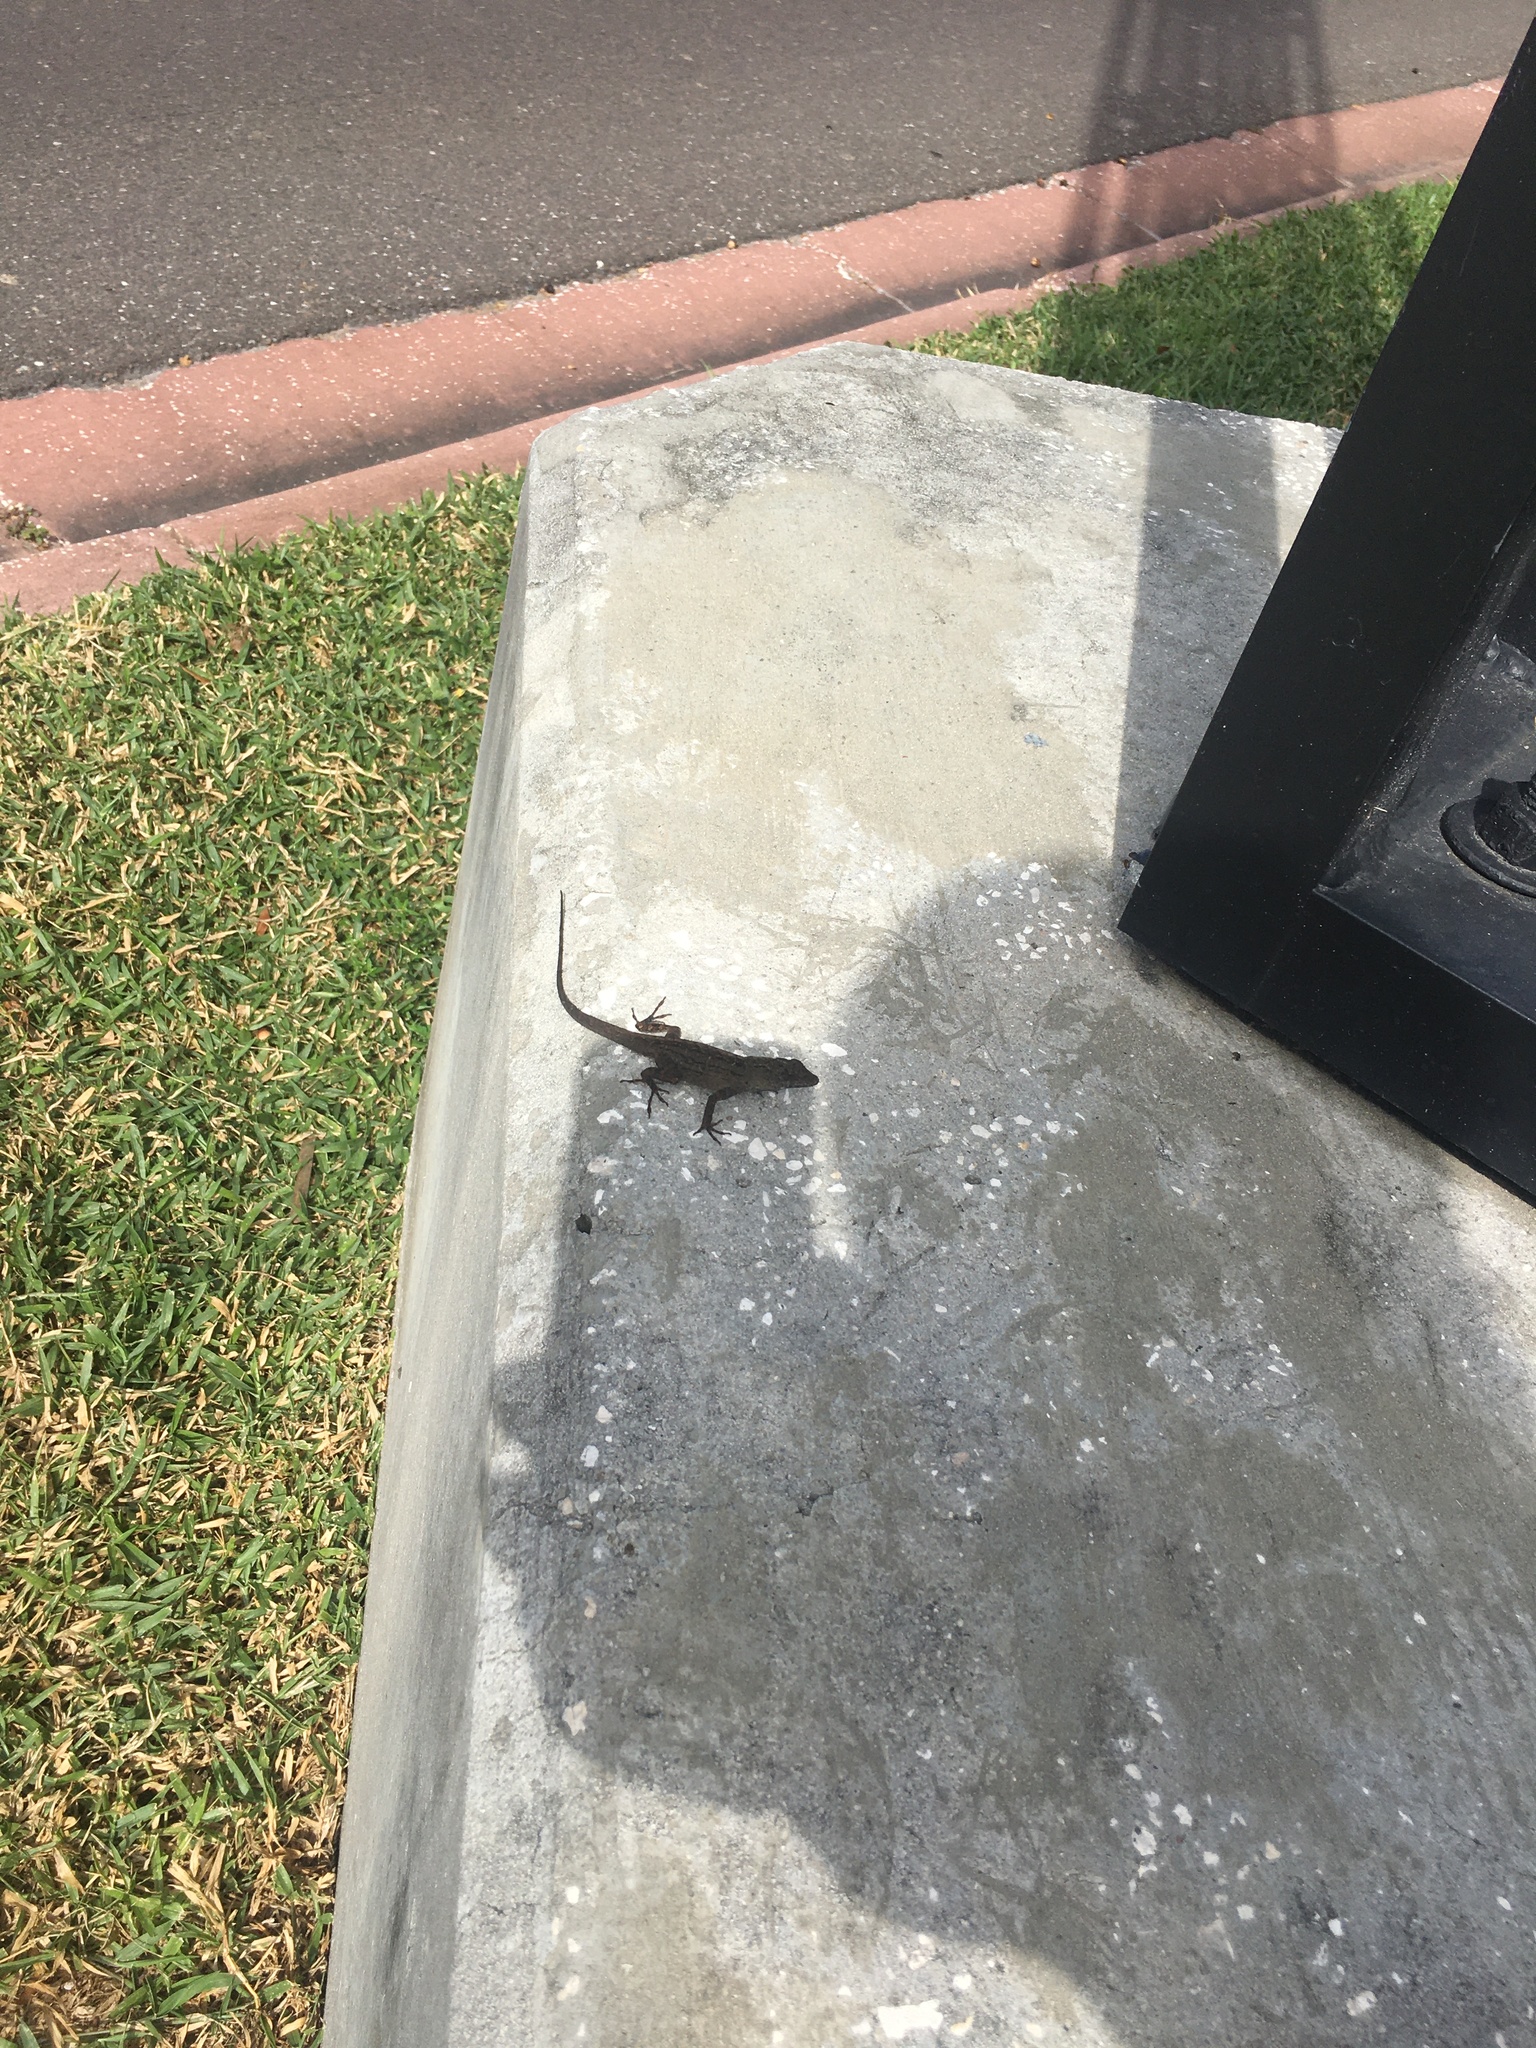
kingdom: Animalia
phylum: Chordata
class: Squamata
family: Dactyloidae
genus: Anolis
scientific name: Anolis sagrei
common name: Brown anole
